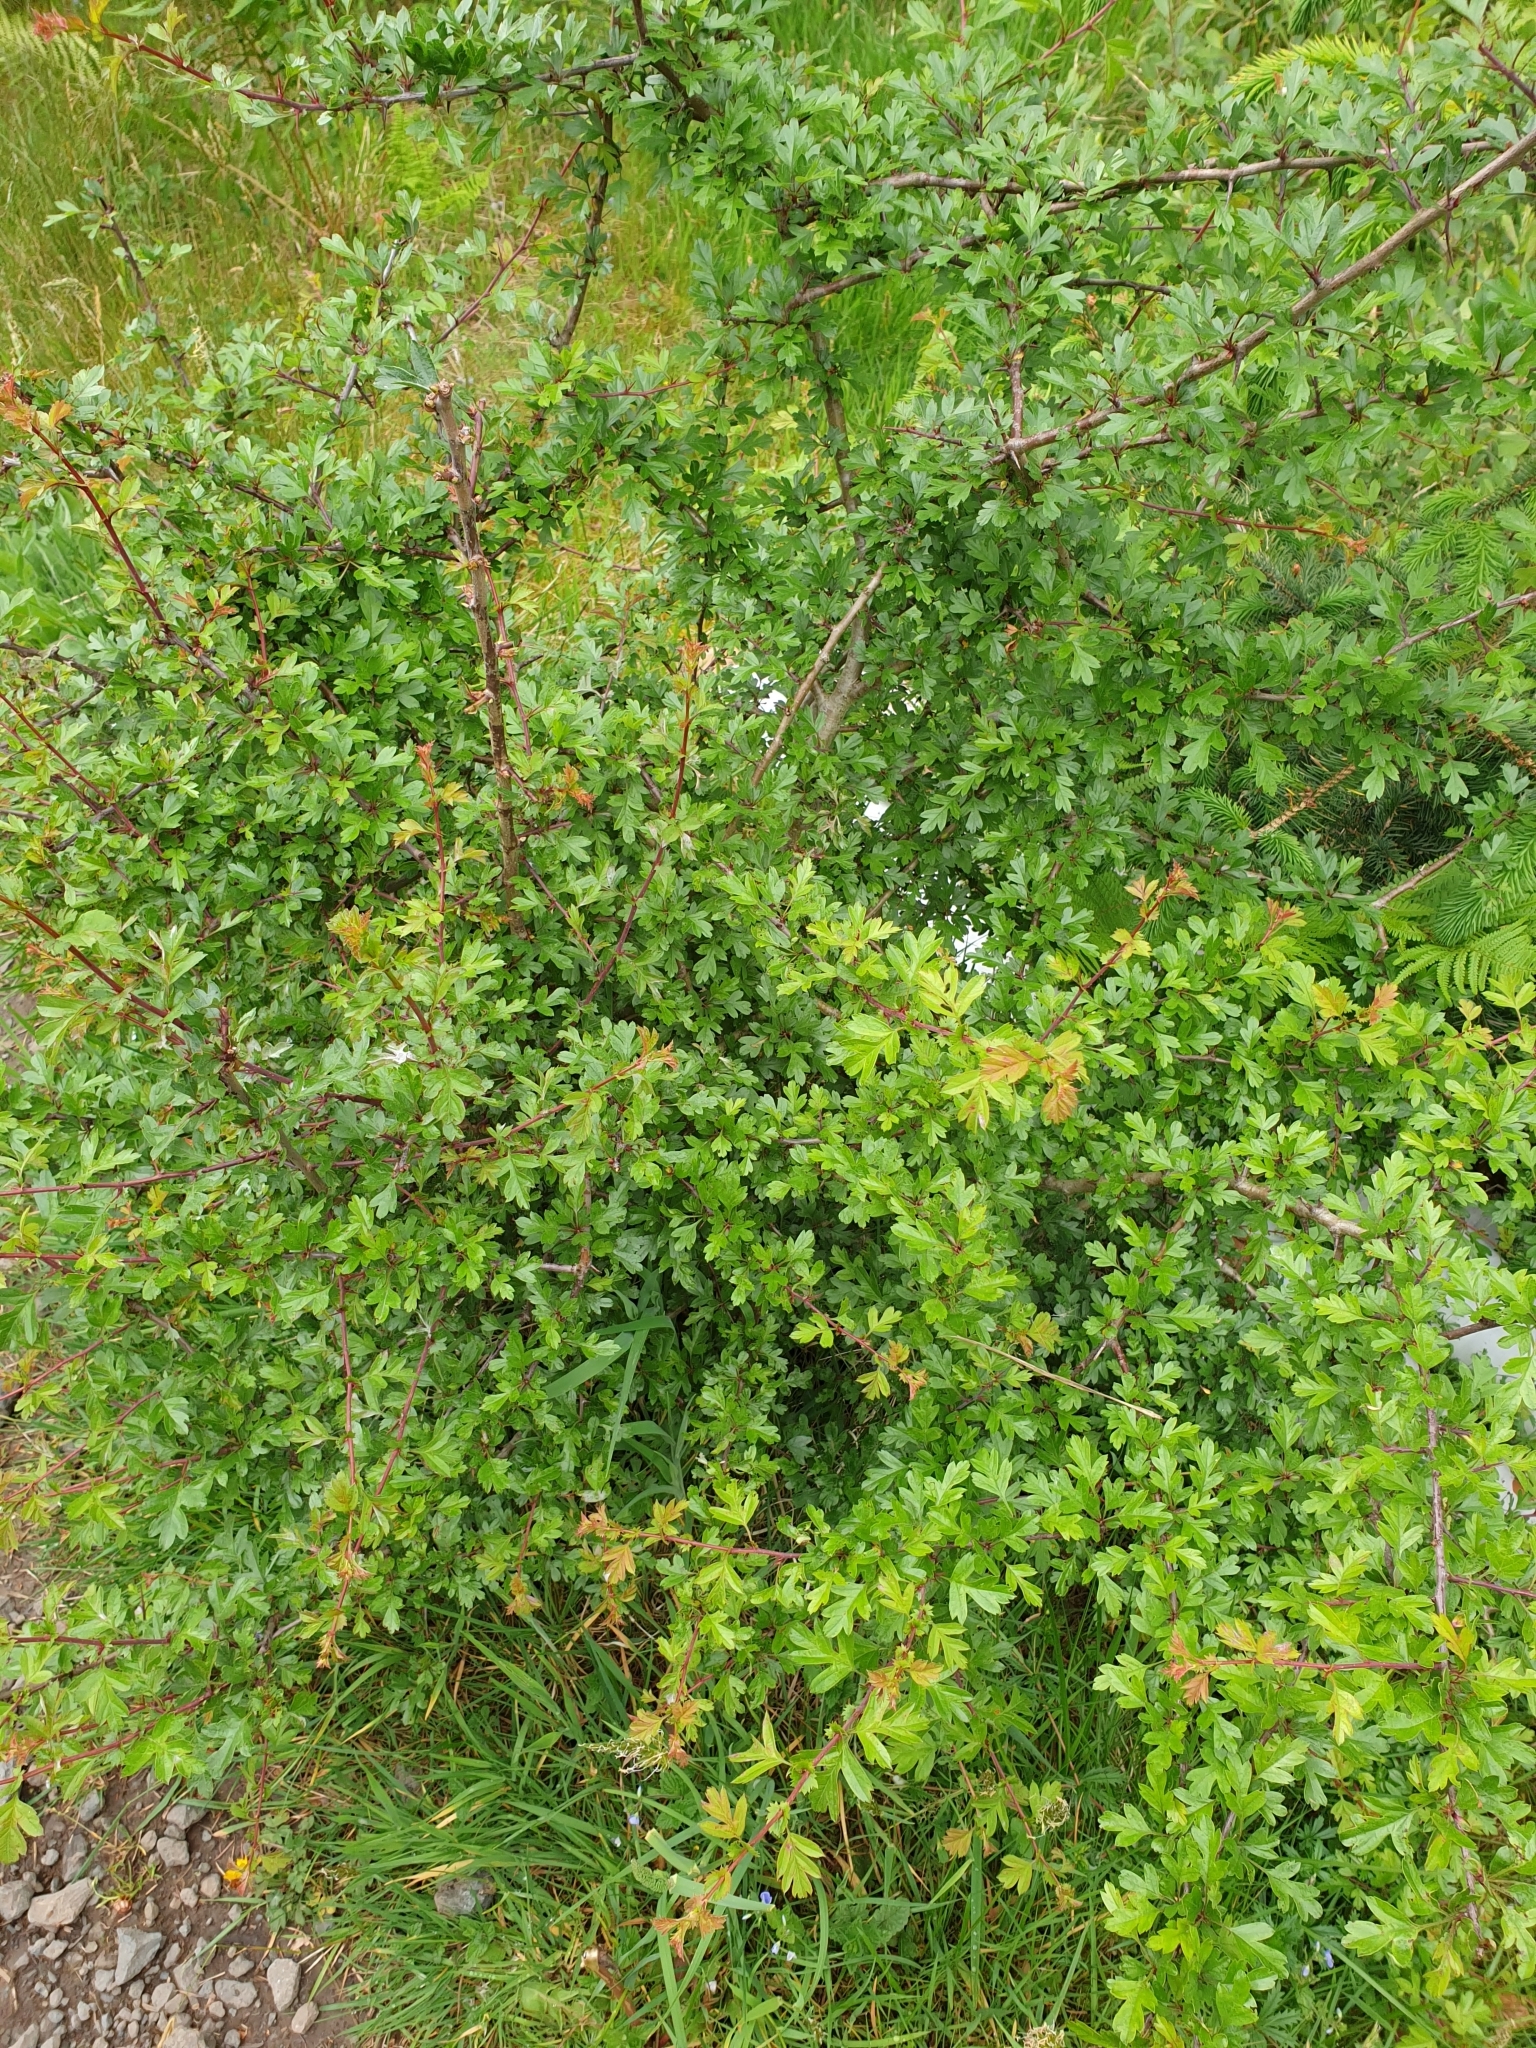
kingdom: Plantae
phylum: Tracheophyta
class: Magnoliopsida
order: Rosales
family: Rosaceae
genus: Crataegus
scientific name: Crataegus monogyna
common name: Hawthorn
